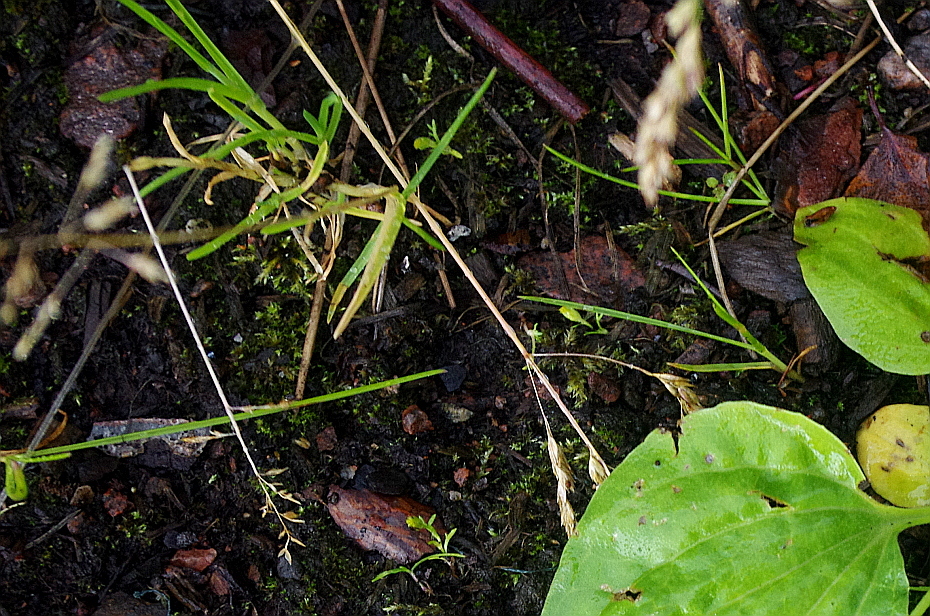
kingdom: Plantae
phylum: Tracheophyta
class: Liliopsida
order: Poales
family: Poaceae
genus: Poa
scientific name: Poa annua
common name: Annual bluegrass
